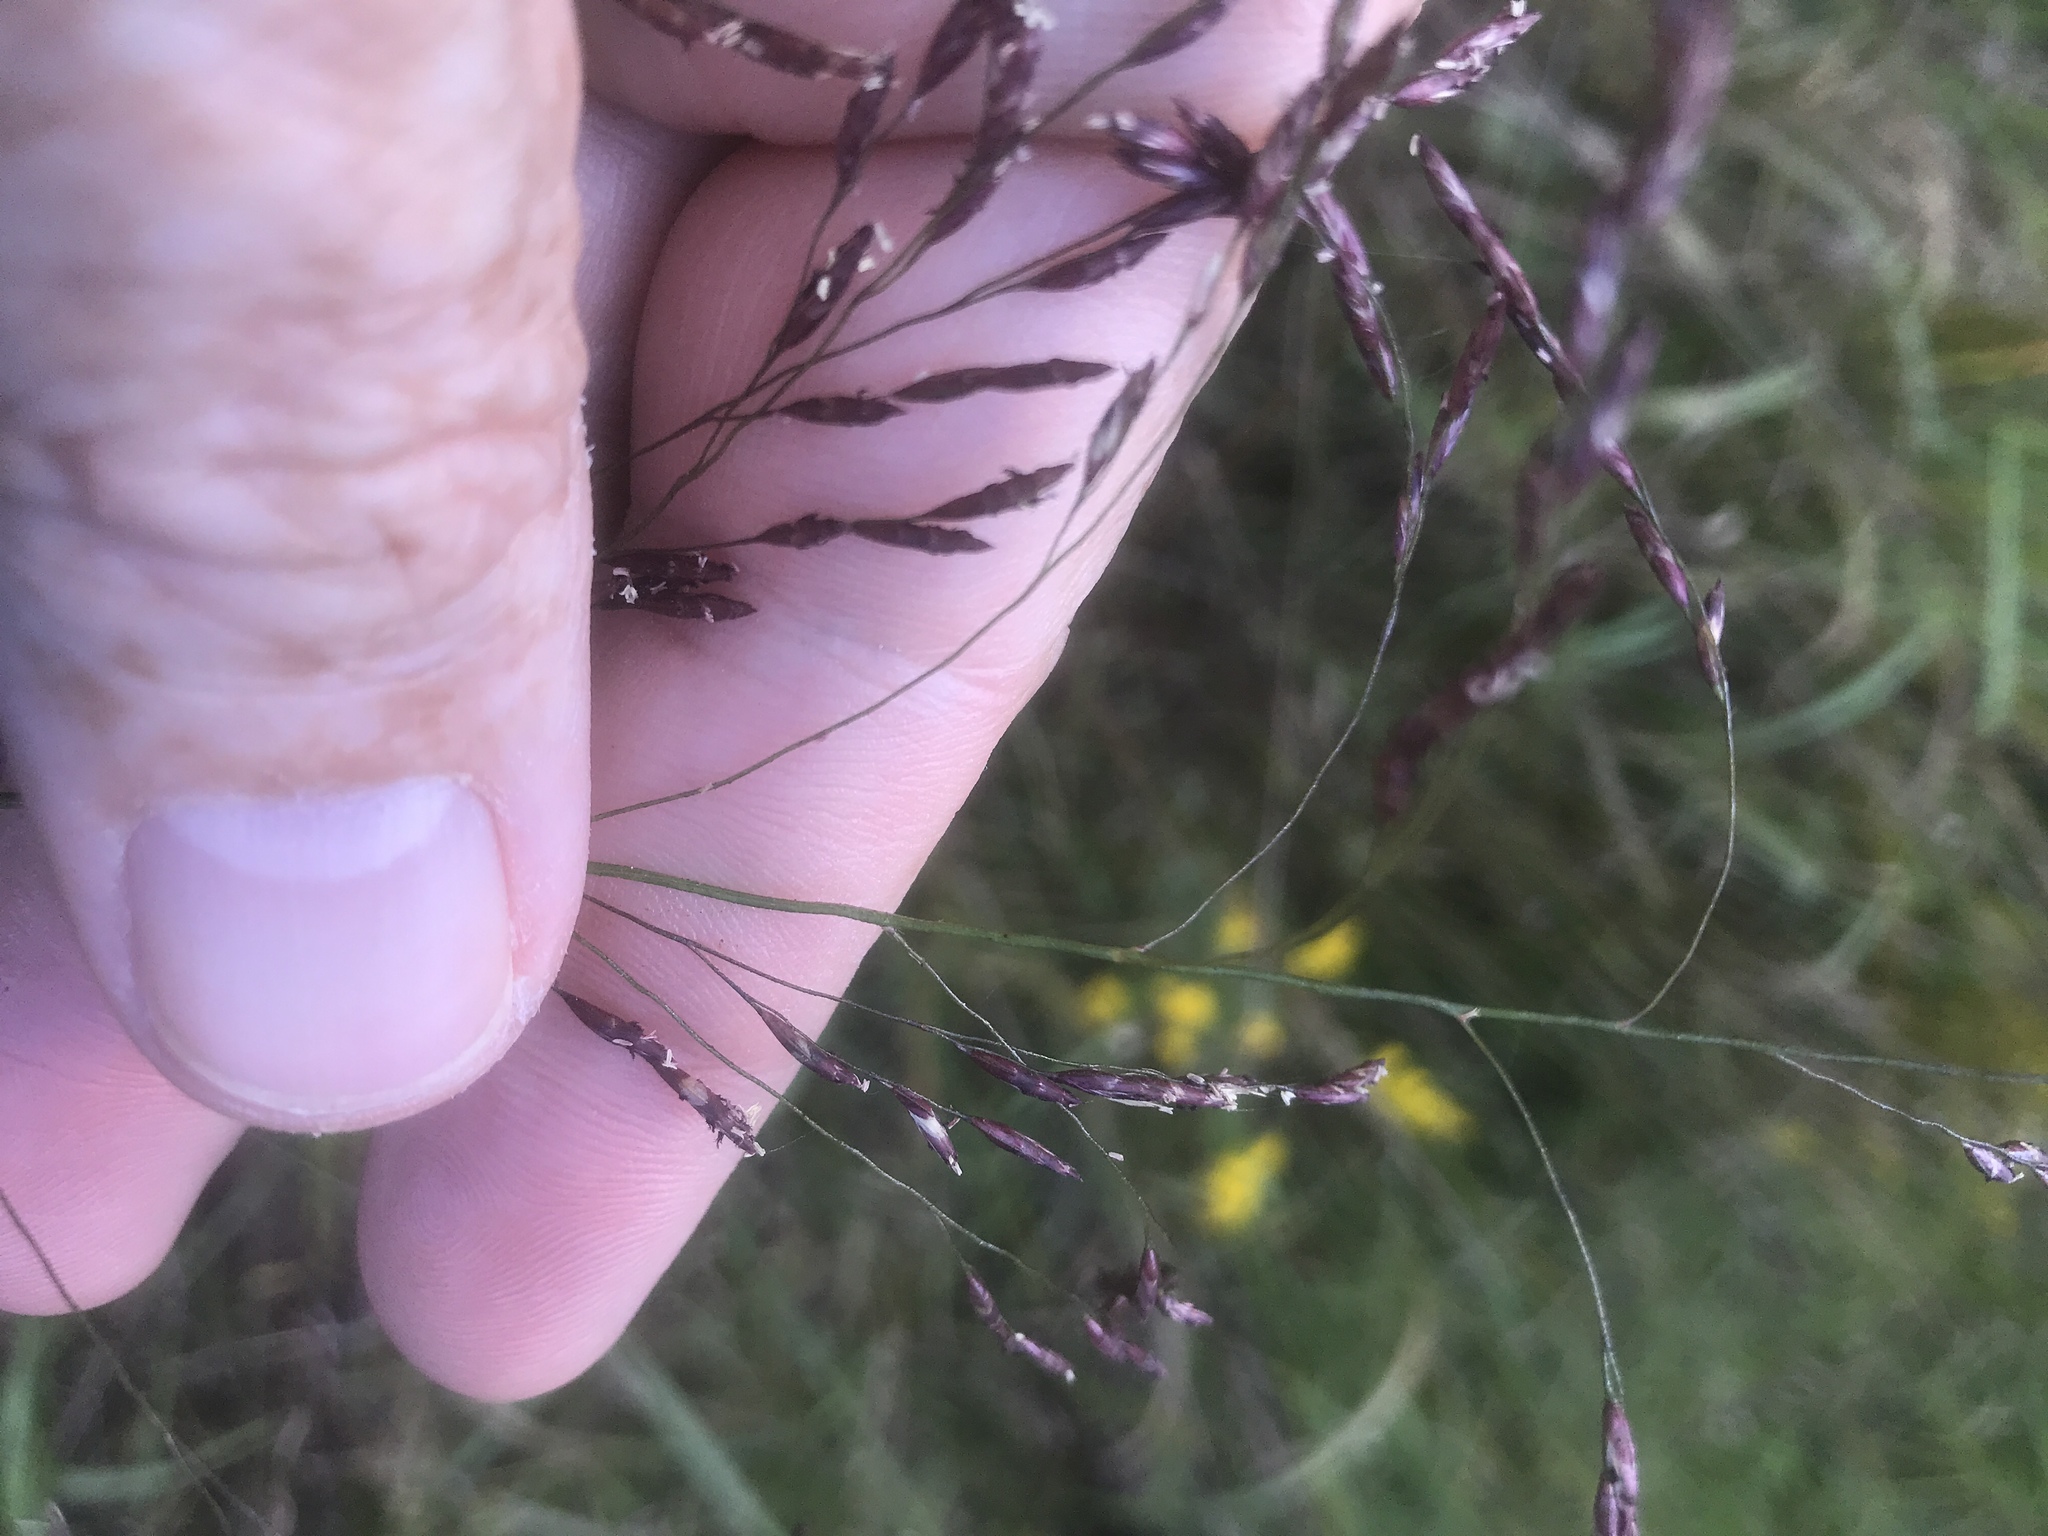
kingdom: Plantae
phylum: Tracheophyta
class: Liliopsida
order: Poales
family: Poaceae
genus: Tridens
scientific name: Tridens flavus
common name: Purpletop
